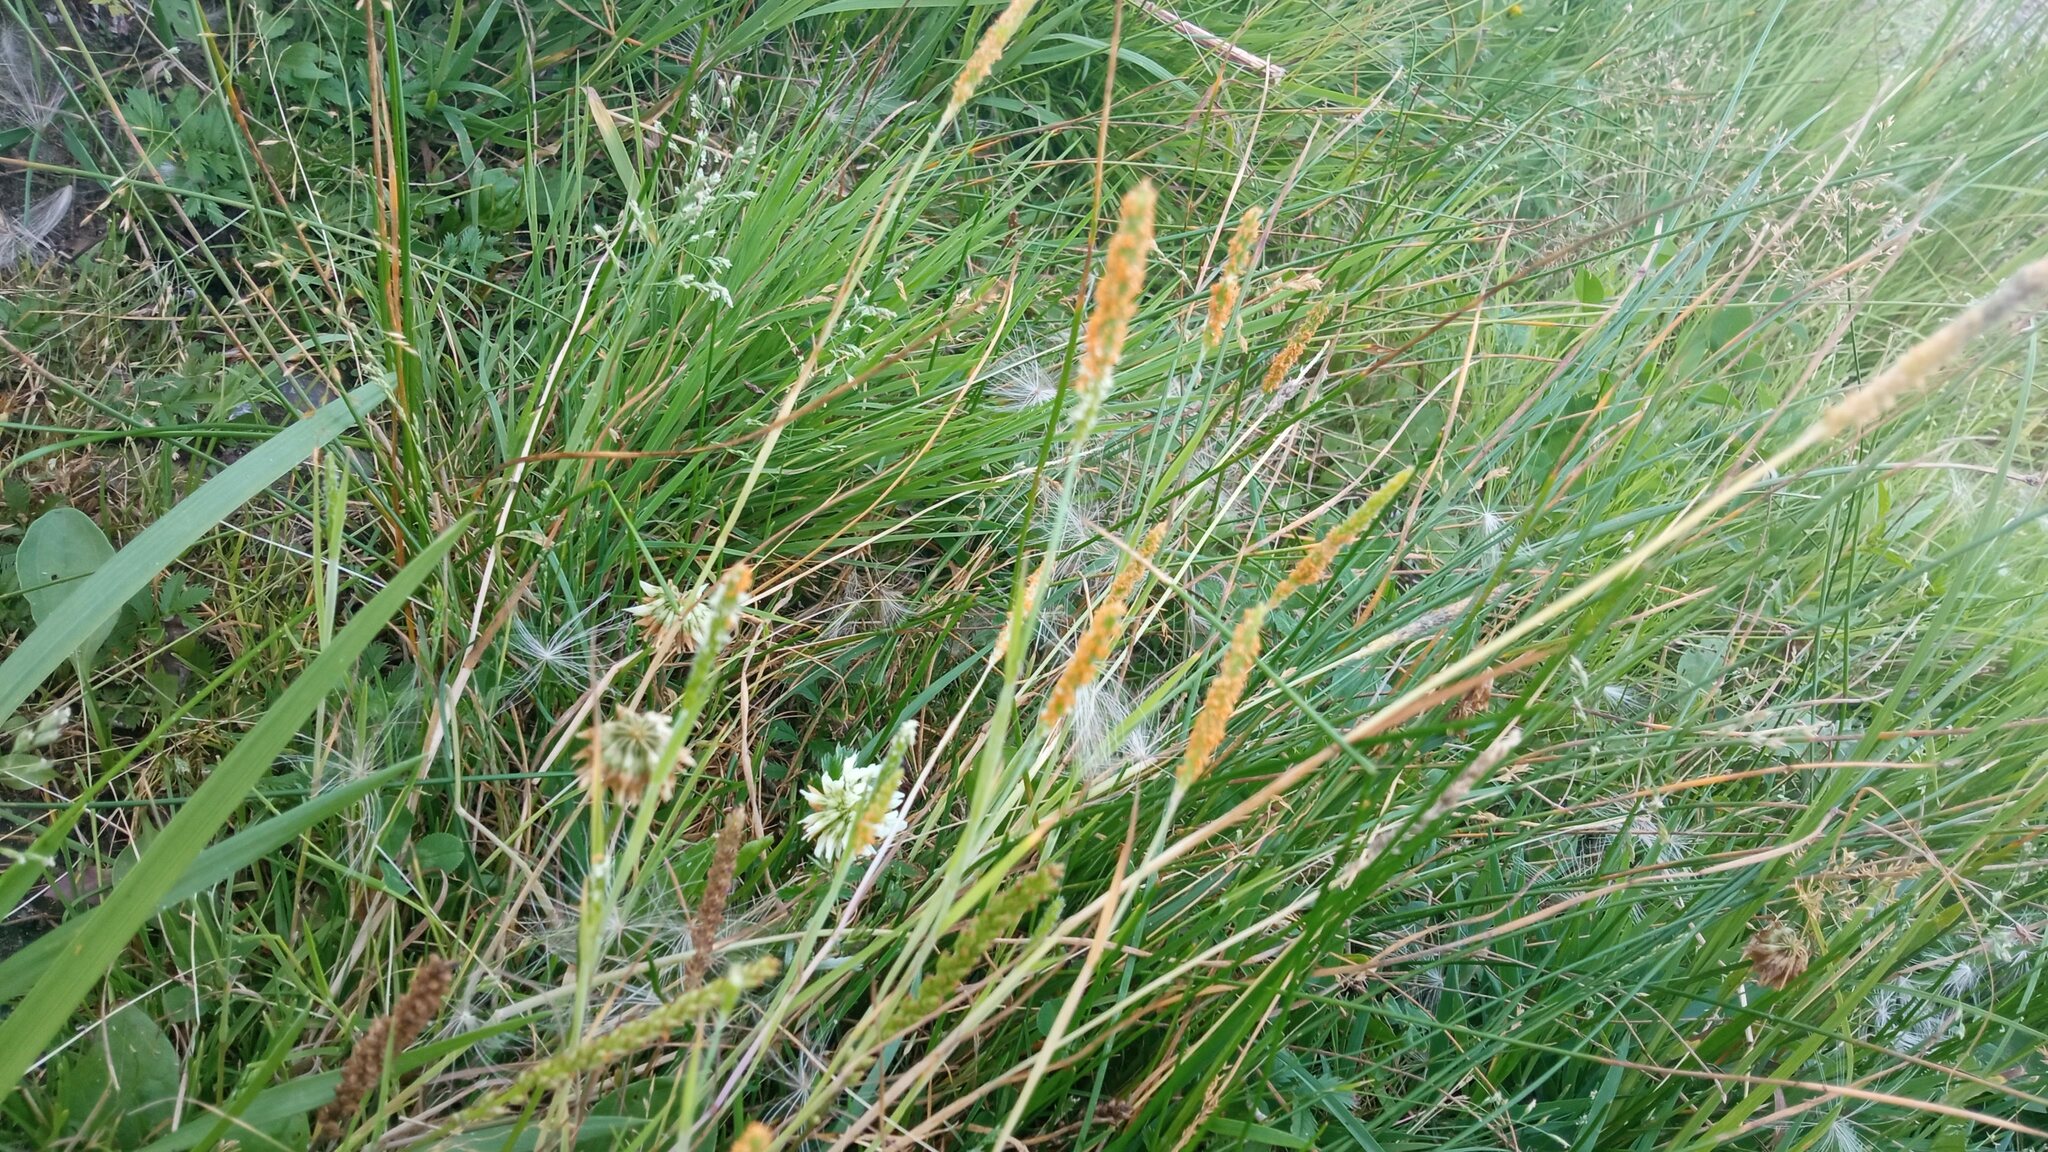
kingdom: Plantae
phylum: Tracheophyta
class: Liliopsida
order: Poales
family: Poaceae
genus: Alopecurus
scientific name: Alopecurus aequalis
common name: Orange foxtail
